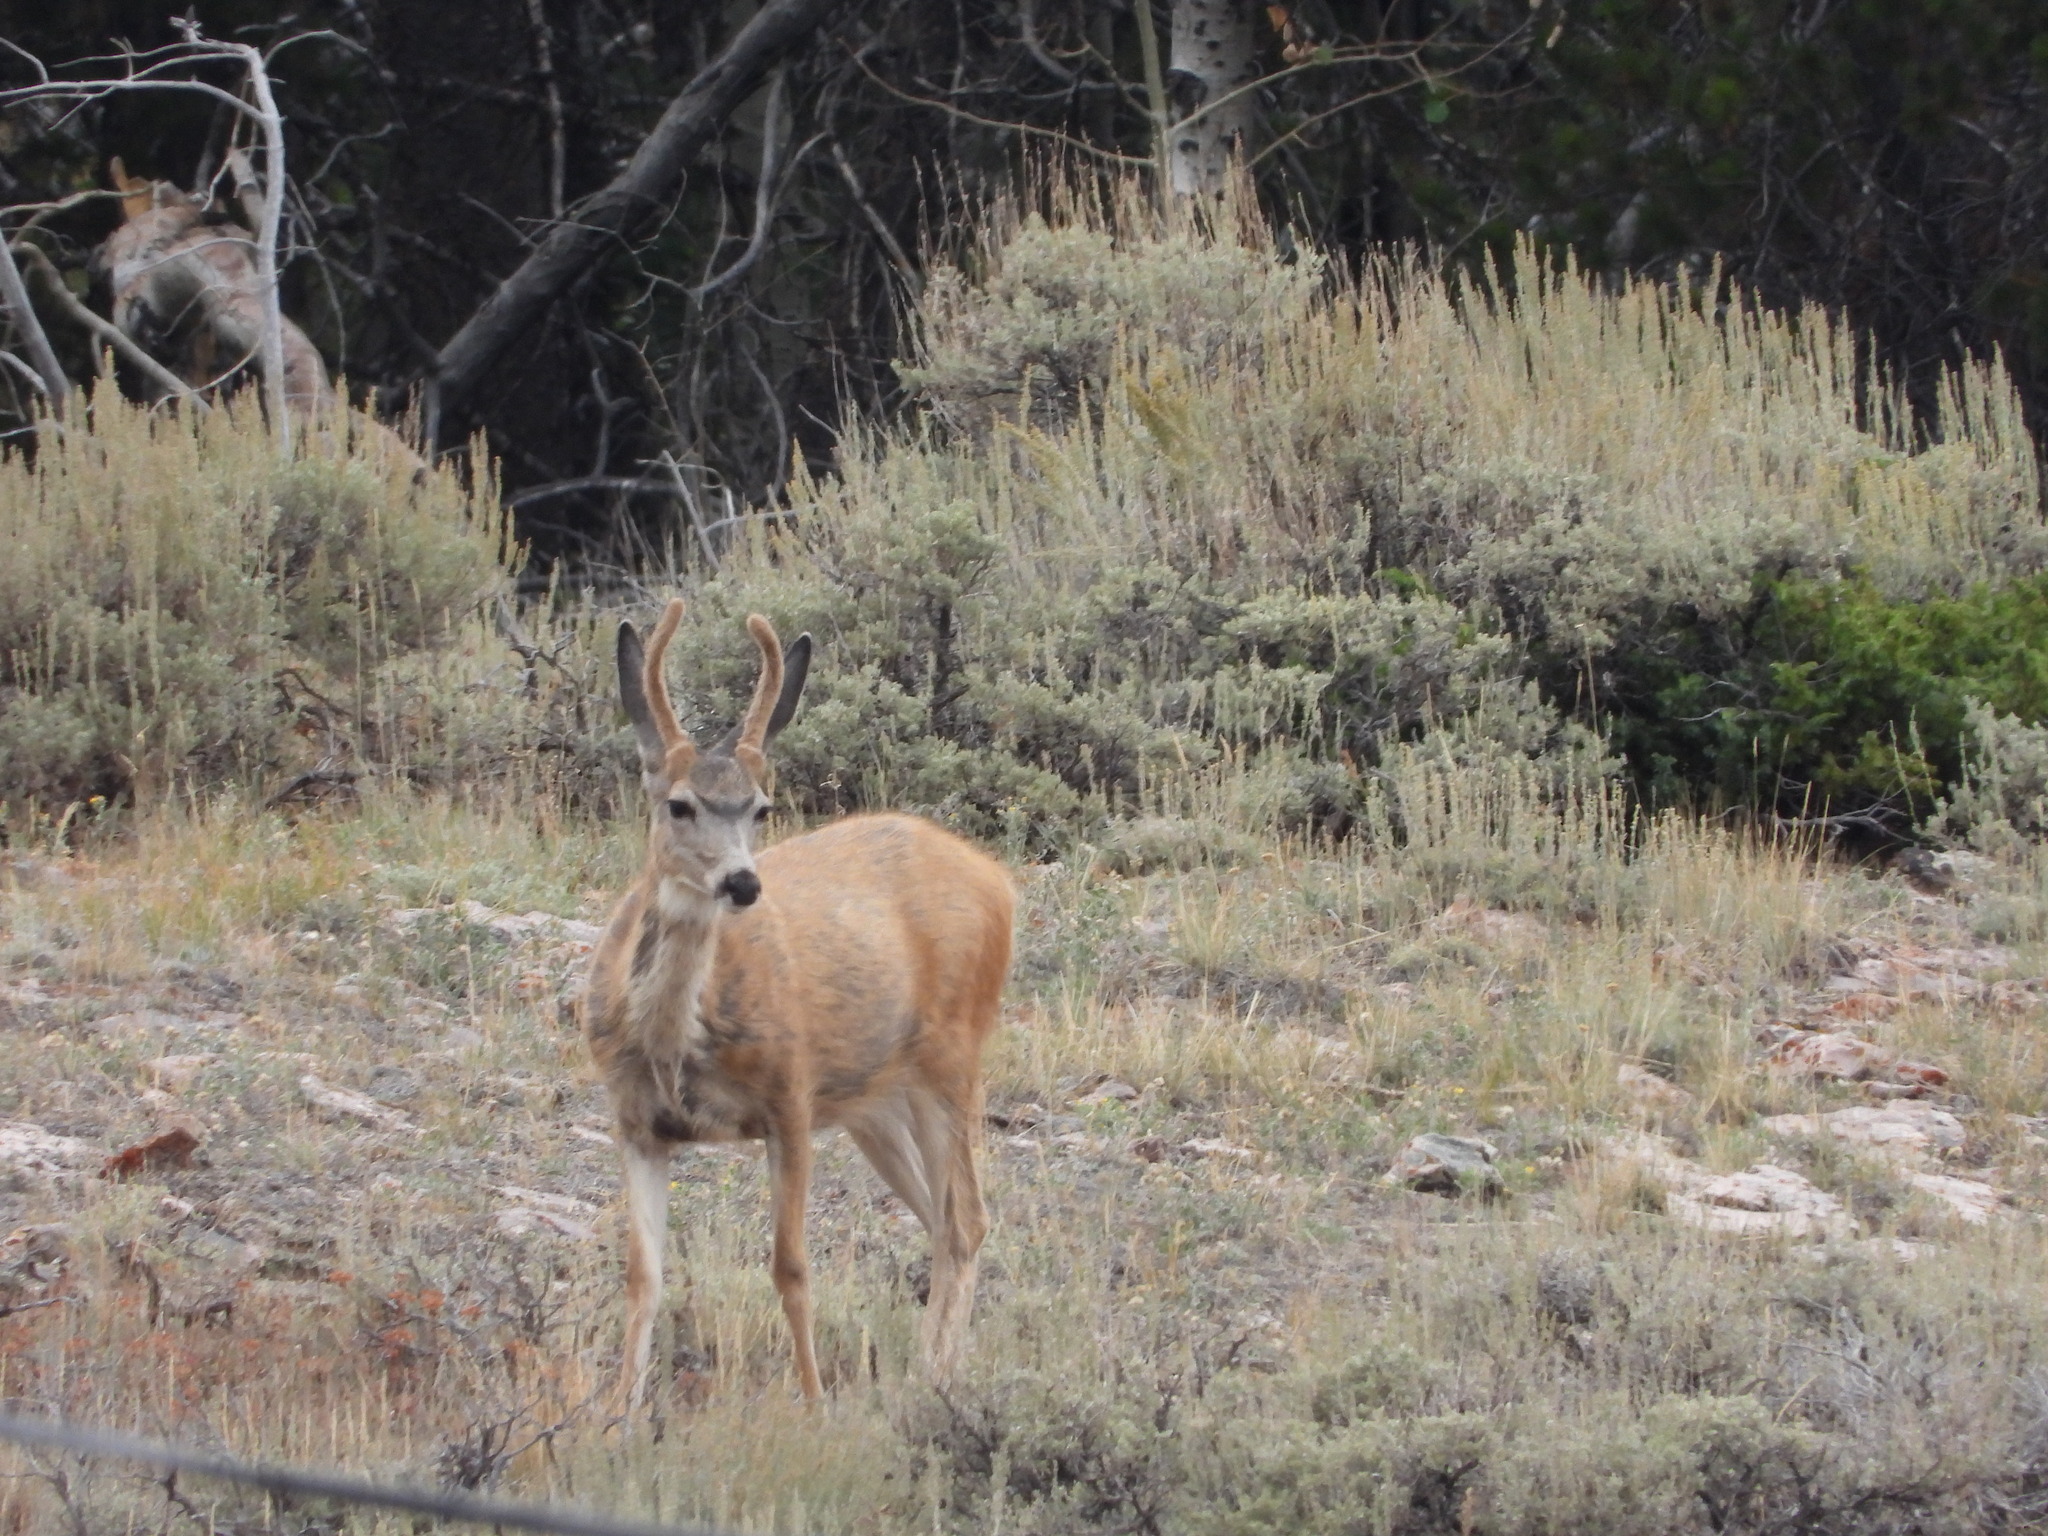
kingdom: Animalia
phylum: Chordata
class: Mammalia
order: Artiodactyla
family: Cervidae
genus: Odocoileus
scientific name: Odocoileus hemionus
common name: Mule deer
